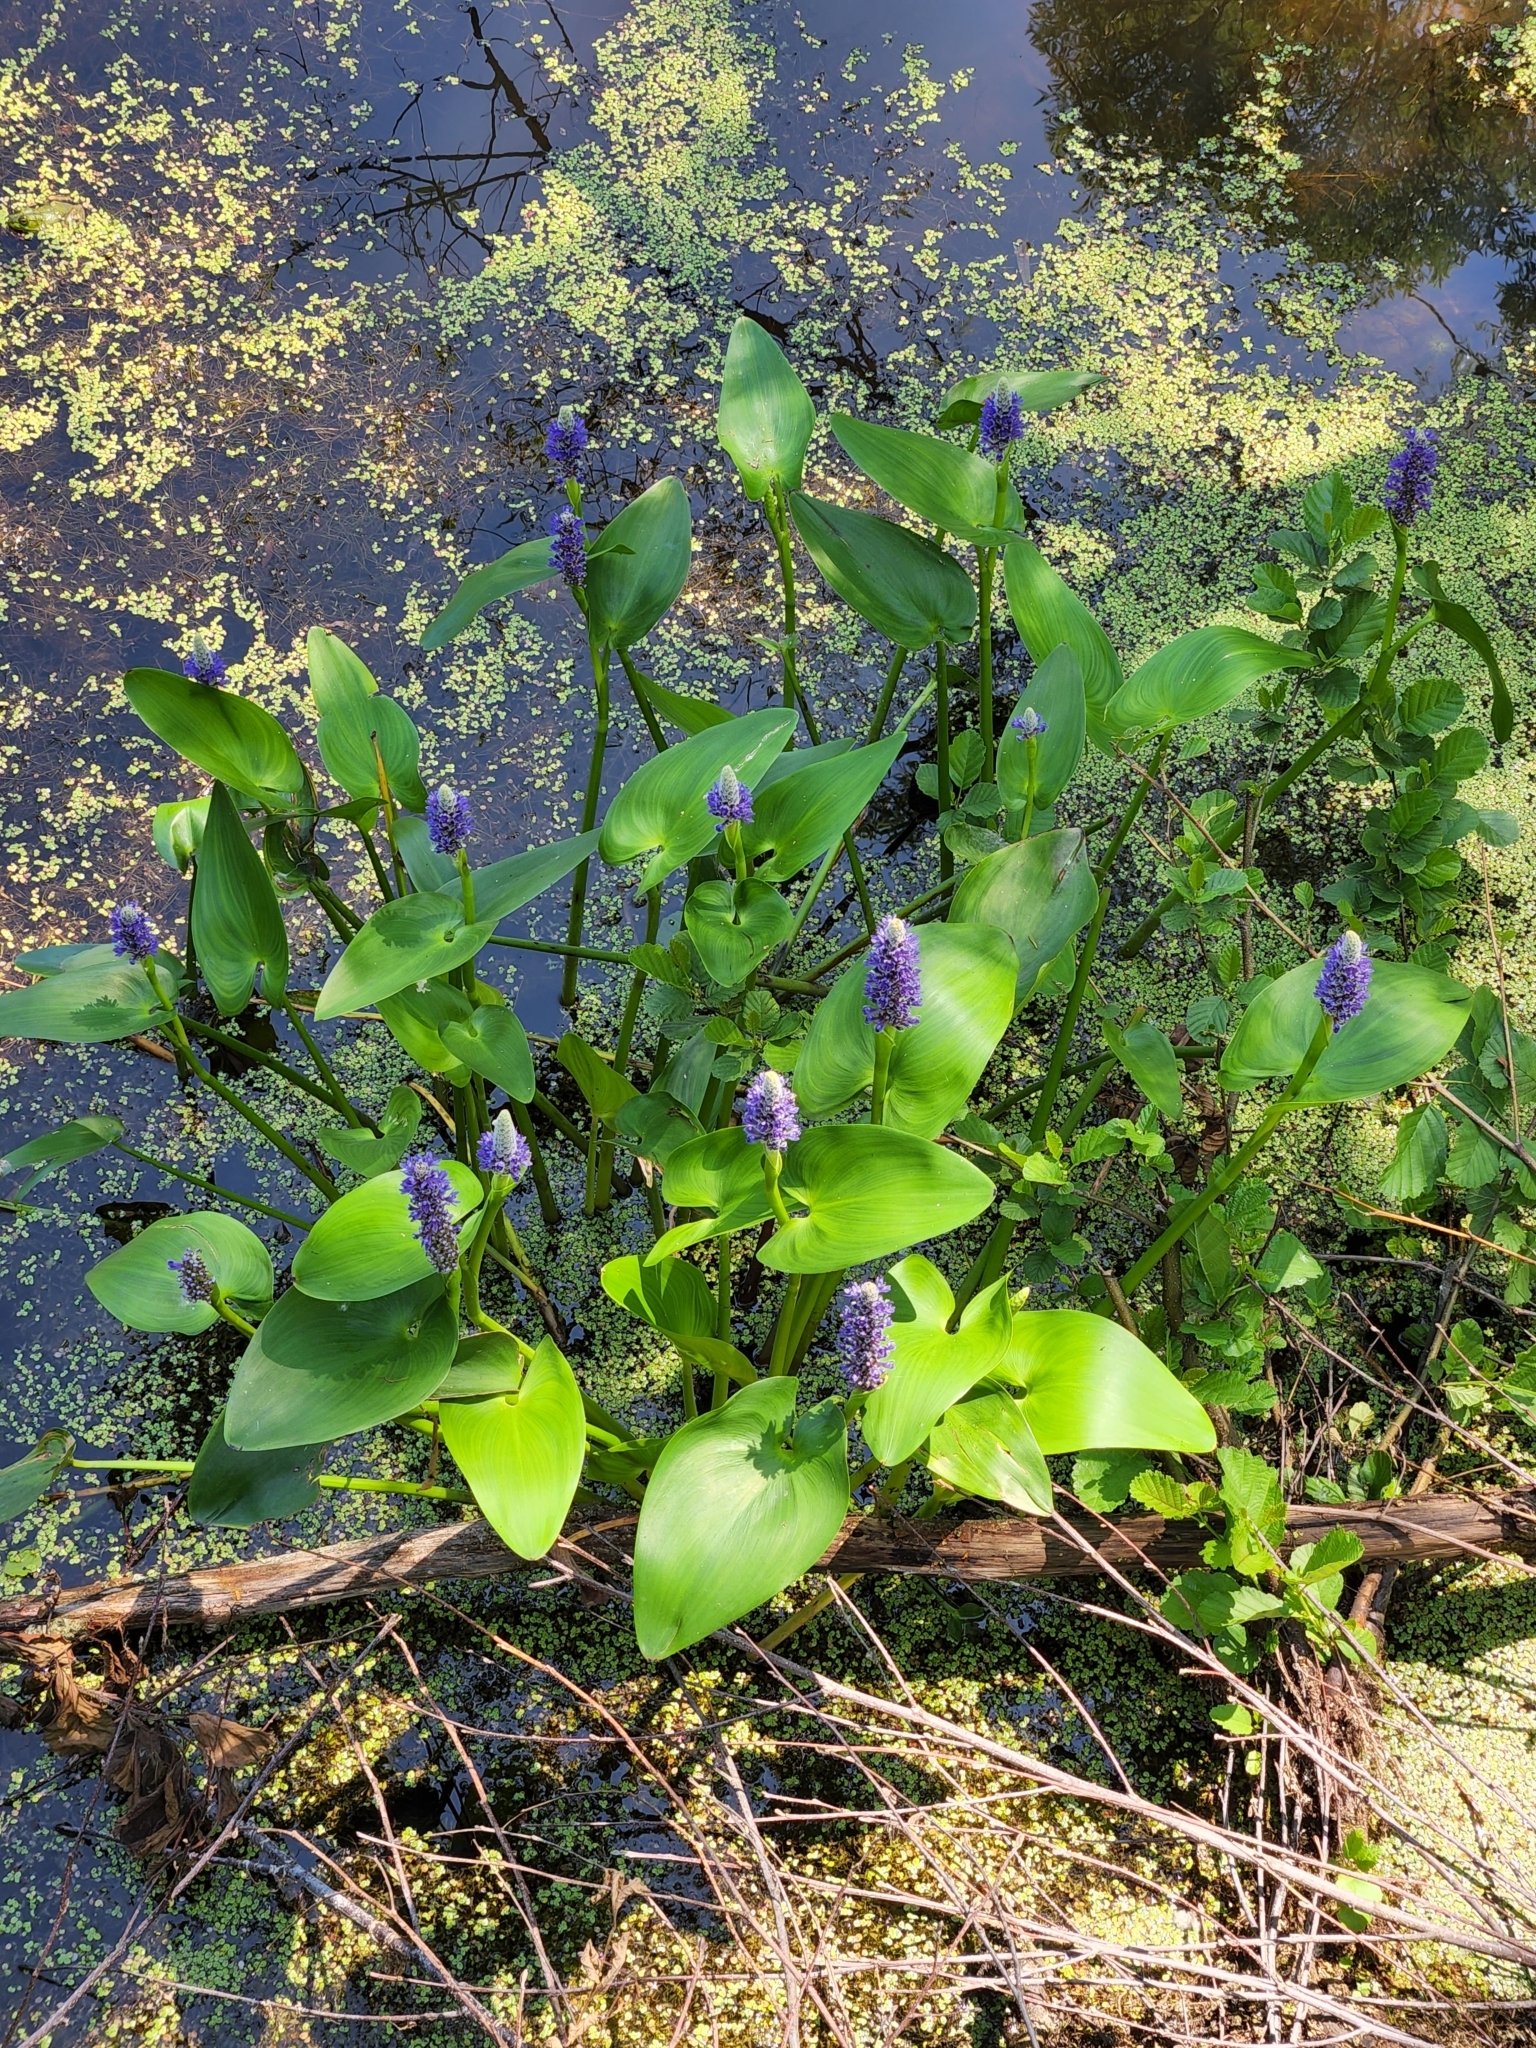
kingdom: Plantae
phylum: Tracheophyta
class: Liliopsida
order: Commelinales
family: Pontederiaceae
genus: Pontederia
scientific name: Pontederia cordata
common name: Pickerelweed
